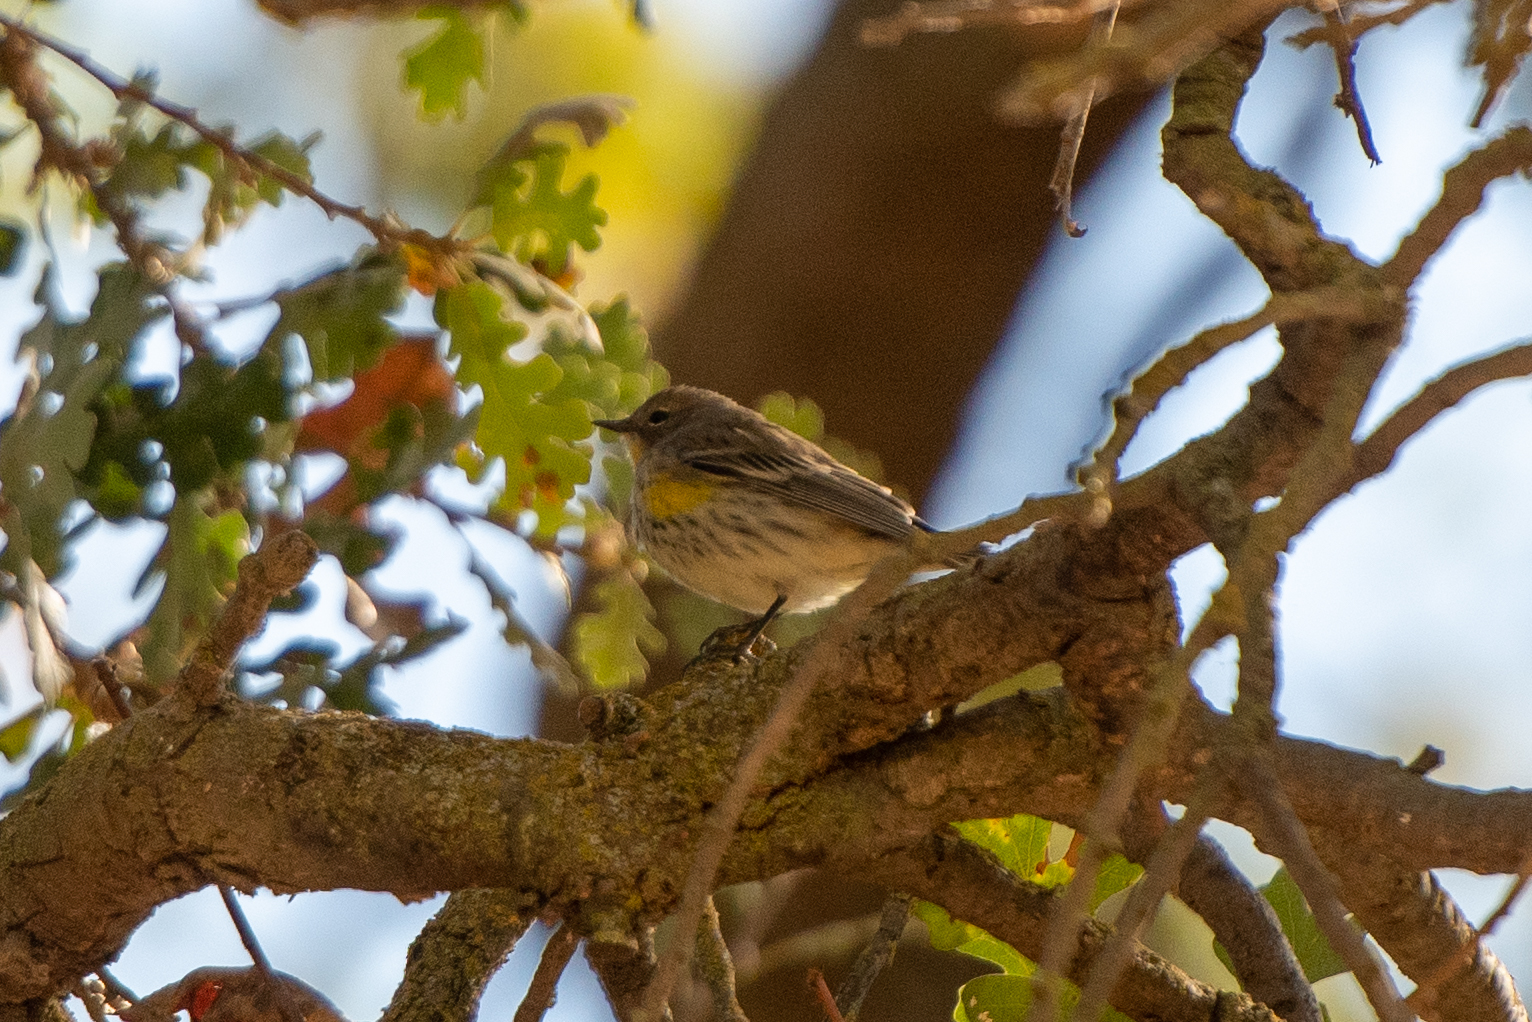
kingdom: Animalia
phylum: Chordata
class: Aves
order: Passeriformes
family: Parulidae
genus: Setophaga
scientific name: Setophaga coronata
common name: Myrtle warbler
